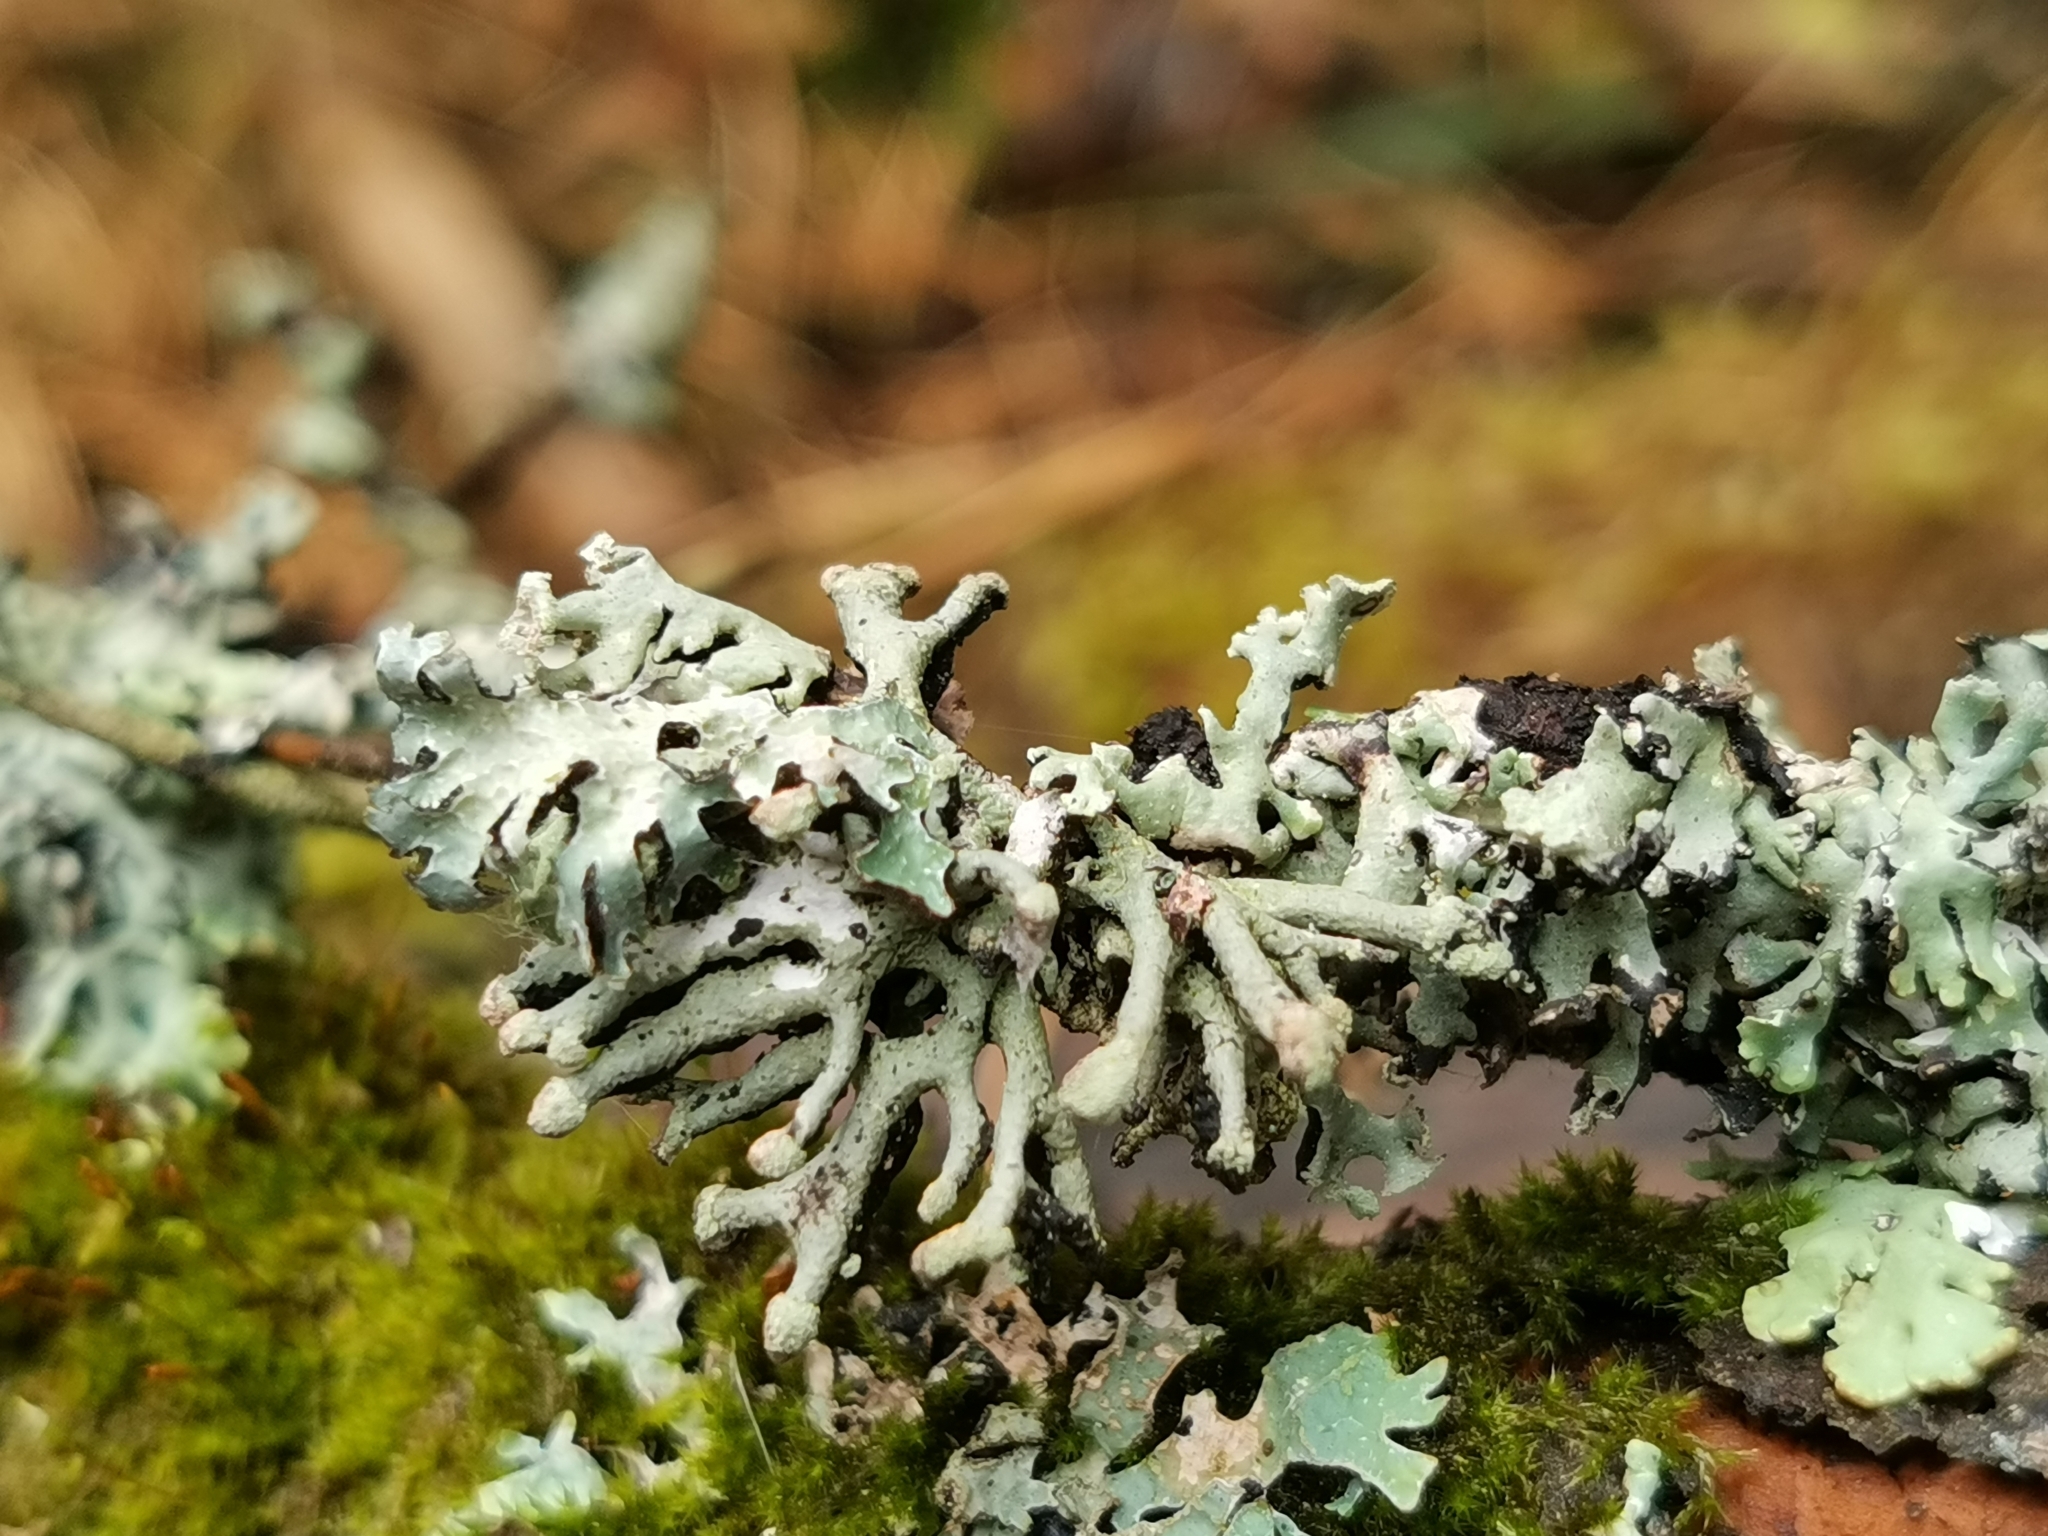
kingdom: Fungi
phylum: Ascomycota
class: Lecanoromycetes
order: Lecanorales
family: Parmeliaceae
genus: Hypogymnia
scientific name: Hypogymnia tubulosa
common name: Powder-headed tube lichen
